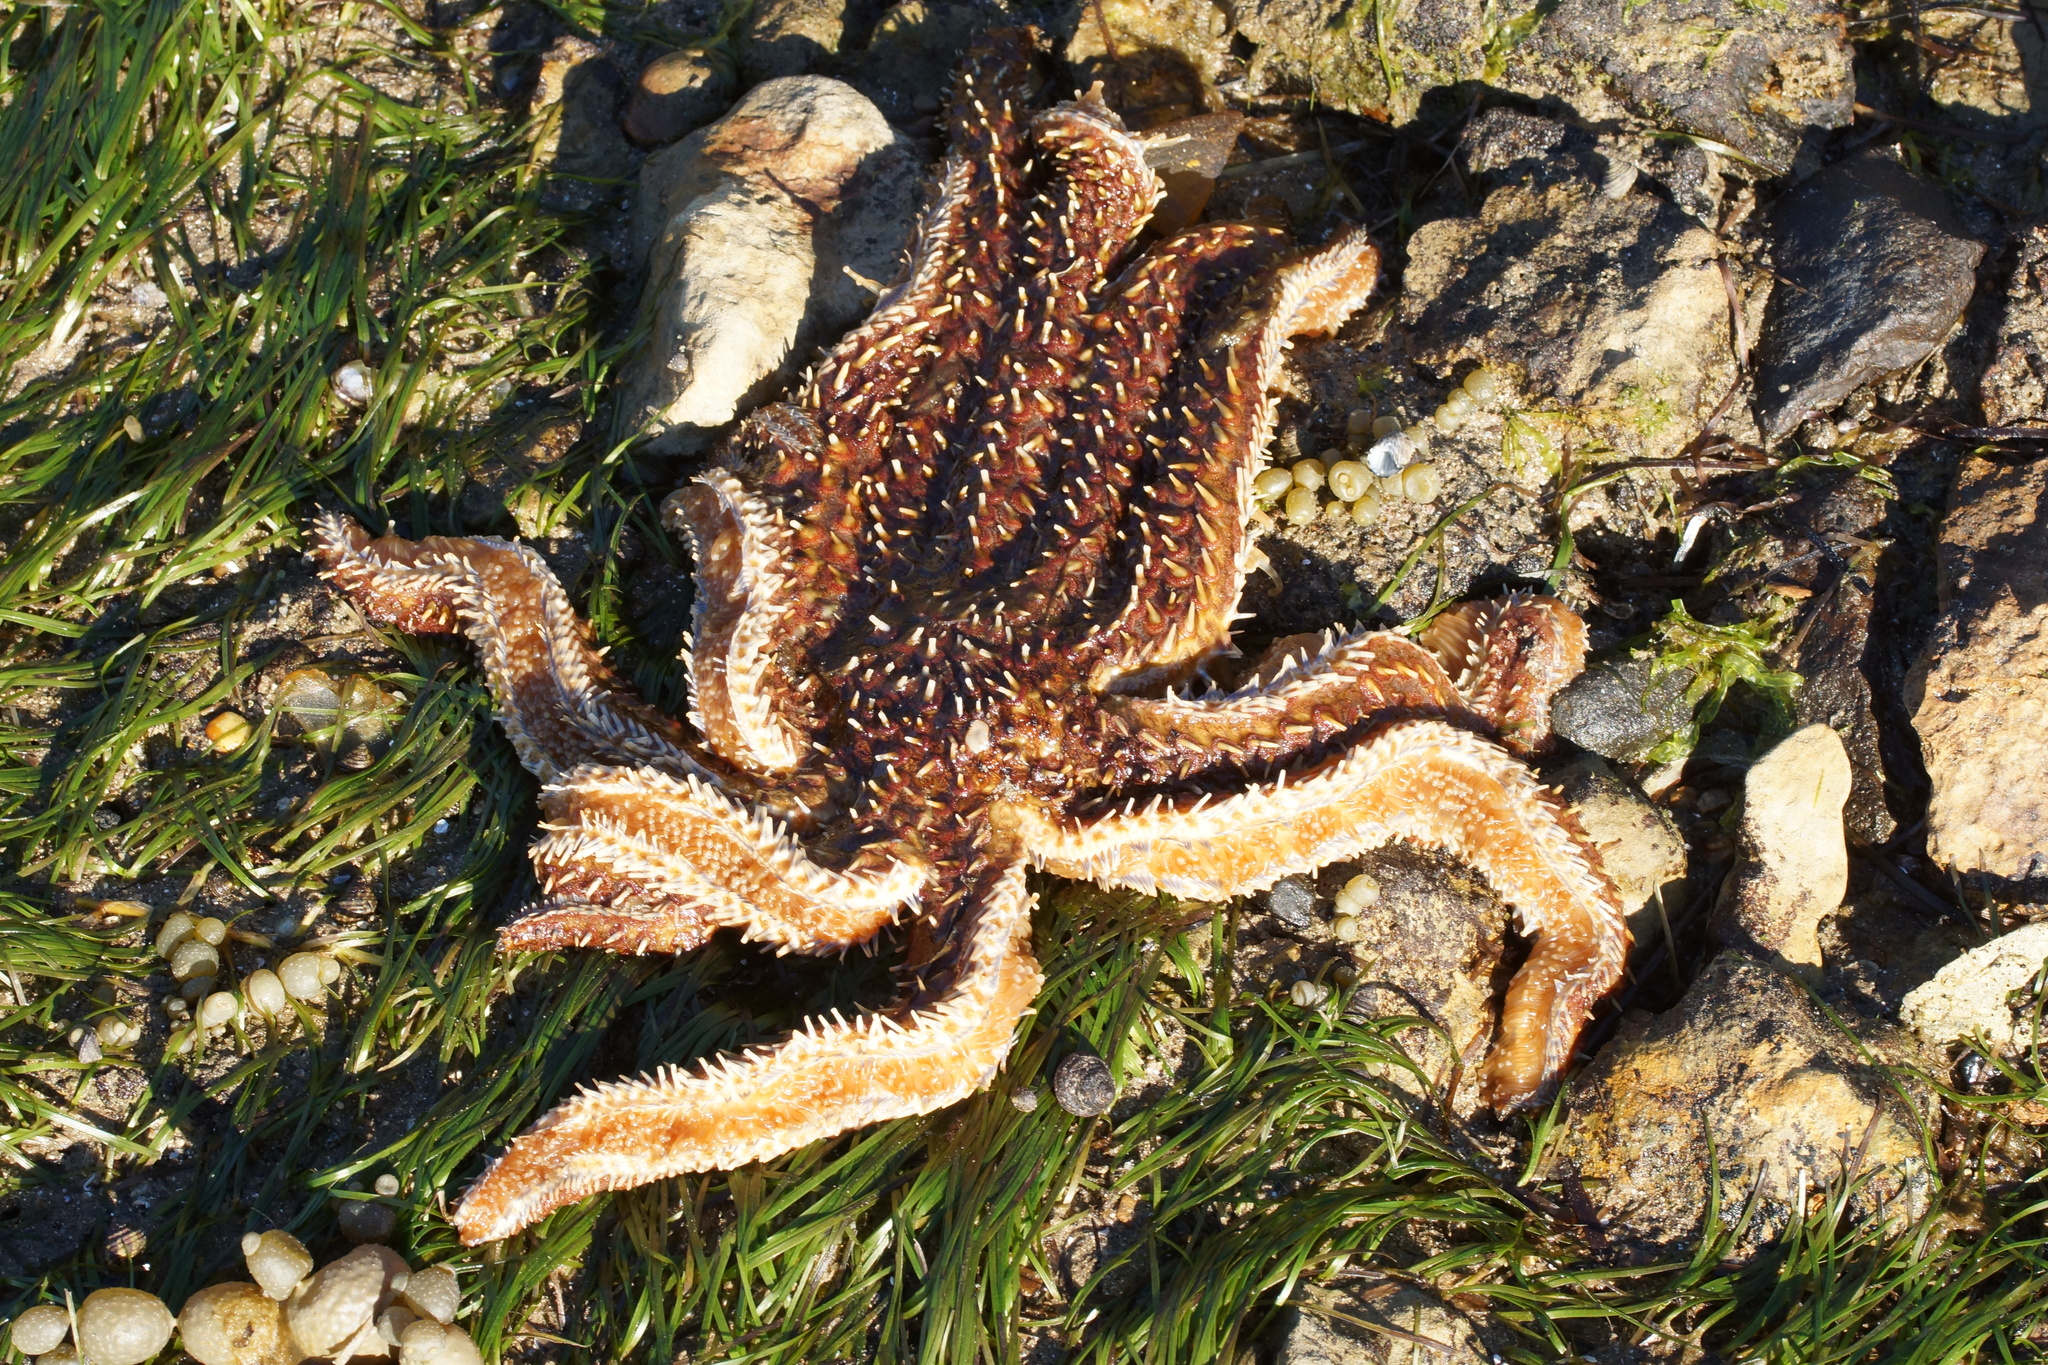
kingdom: Animalia
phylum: Echinodermata
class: Asteroidea
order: Forcipulatida
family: Asteriidae
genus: Coscinasterias
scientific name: Coscinasterias muricata
